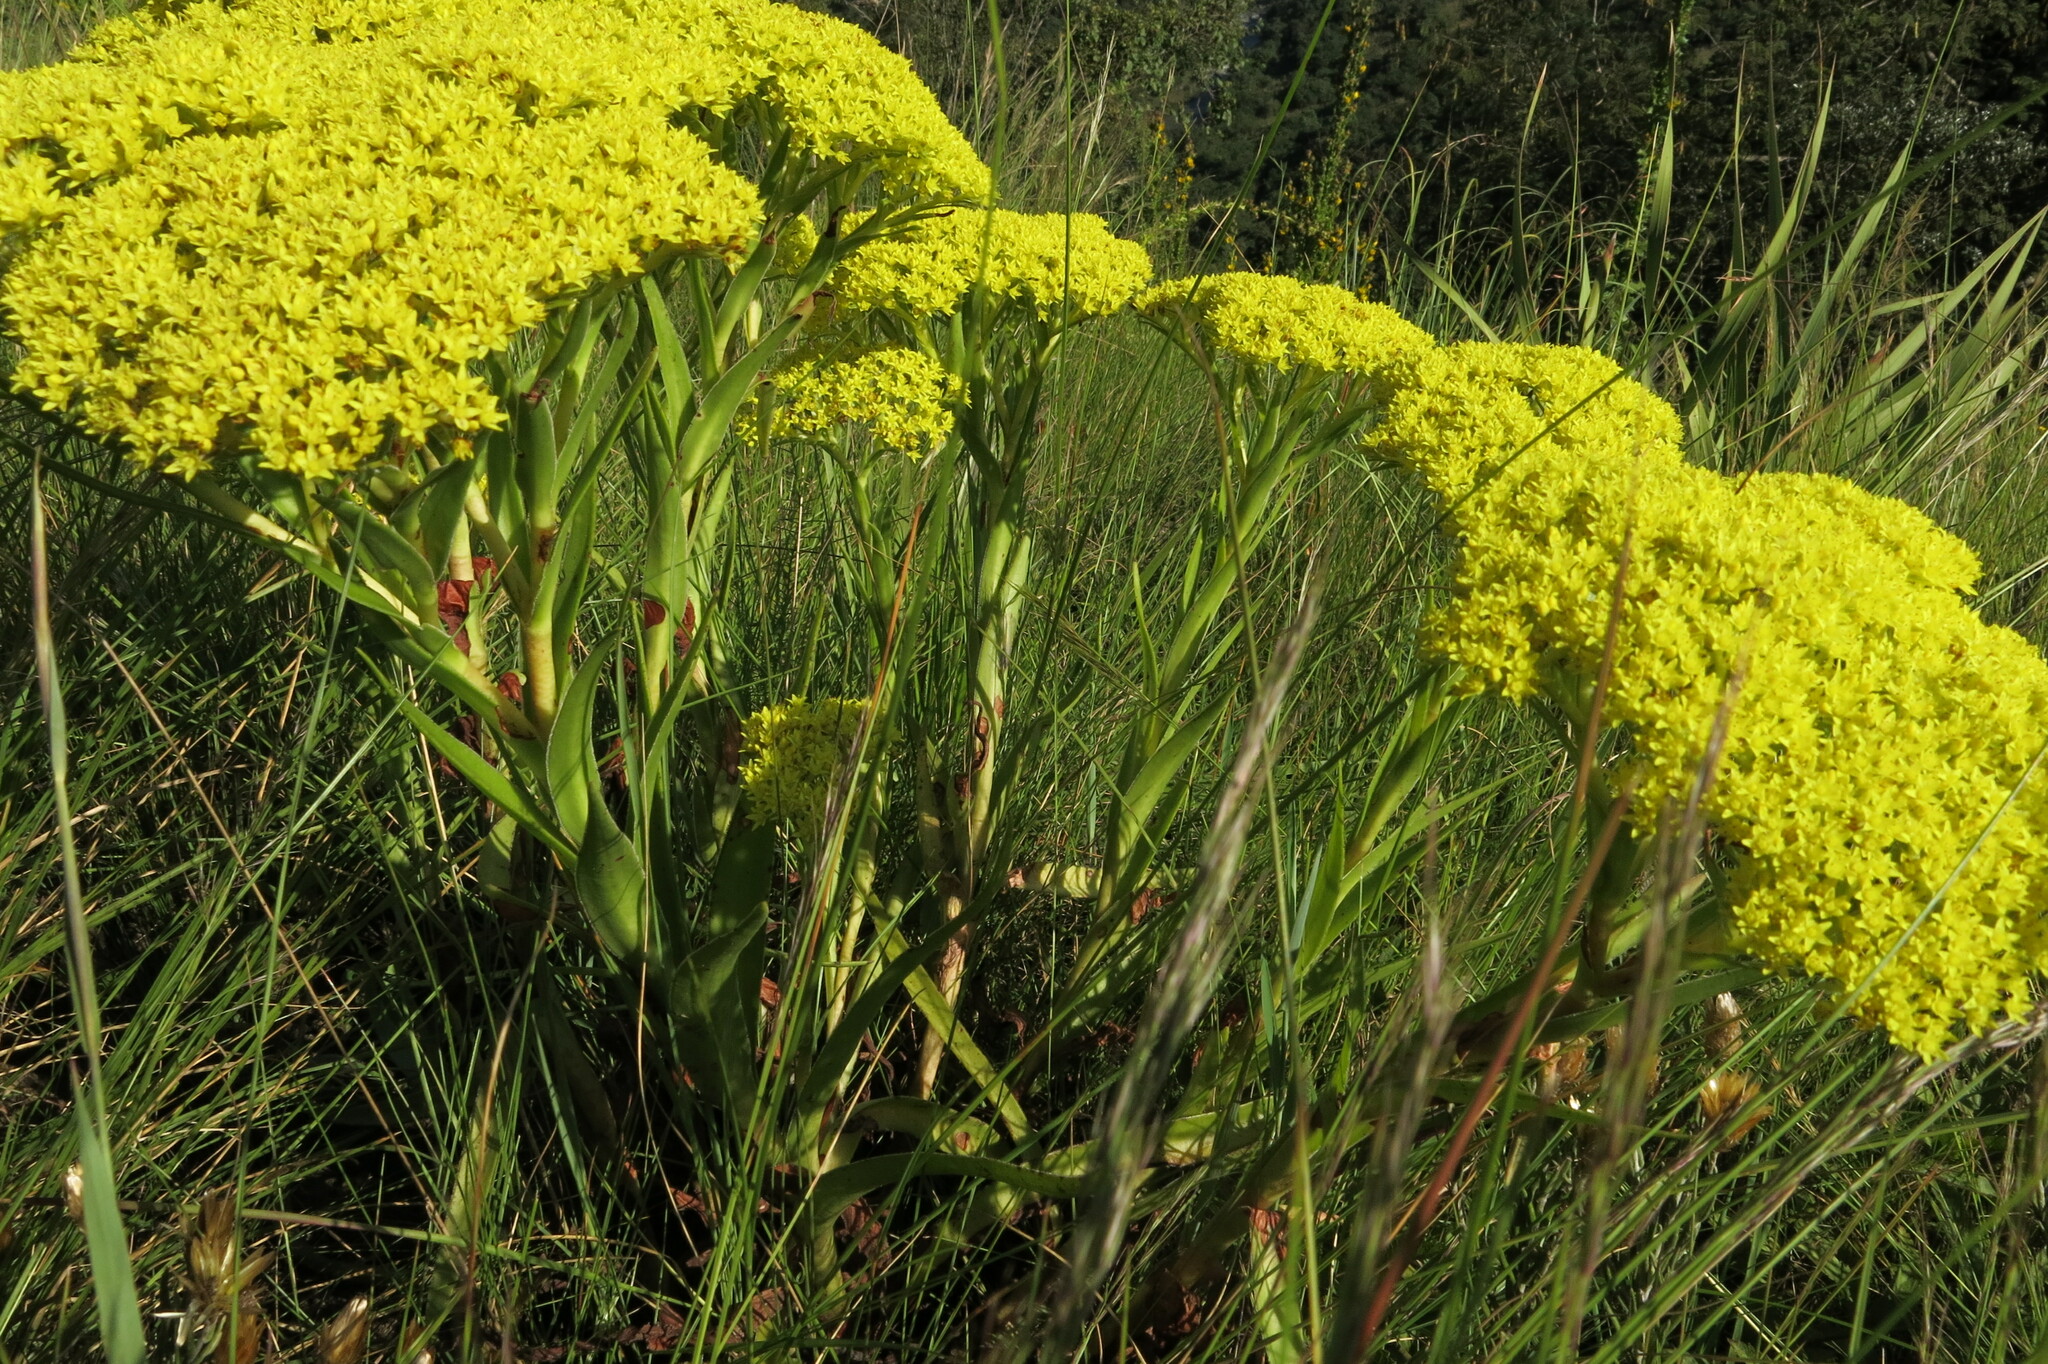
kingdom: Plantae
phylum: Tracheophyta
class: Magnoliopsida
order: Saxifragales
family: Crassulaceae
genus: Crassula
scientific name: Crassula vaginata
